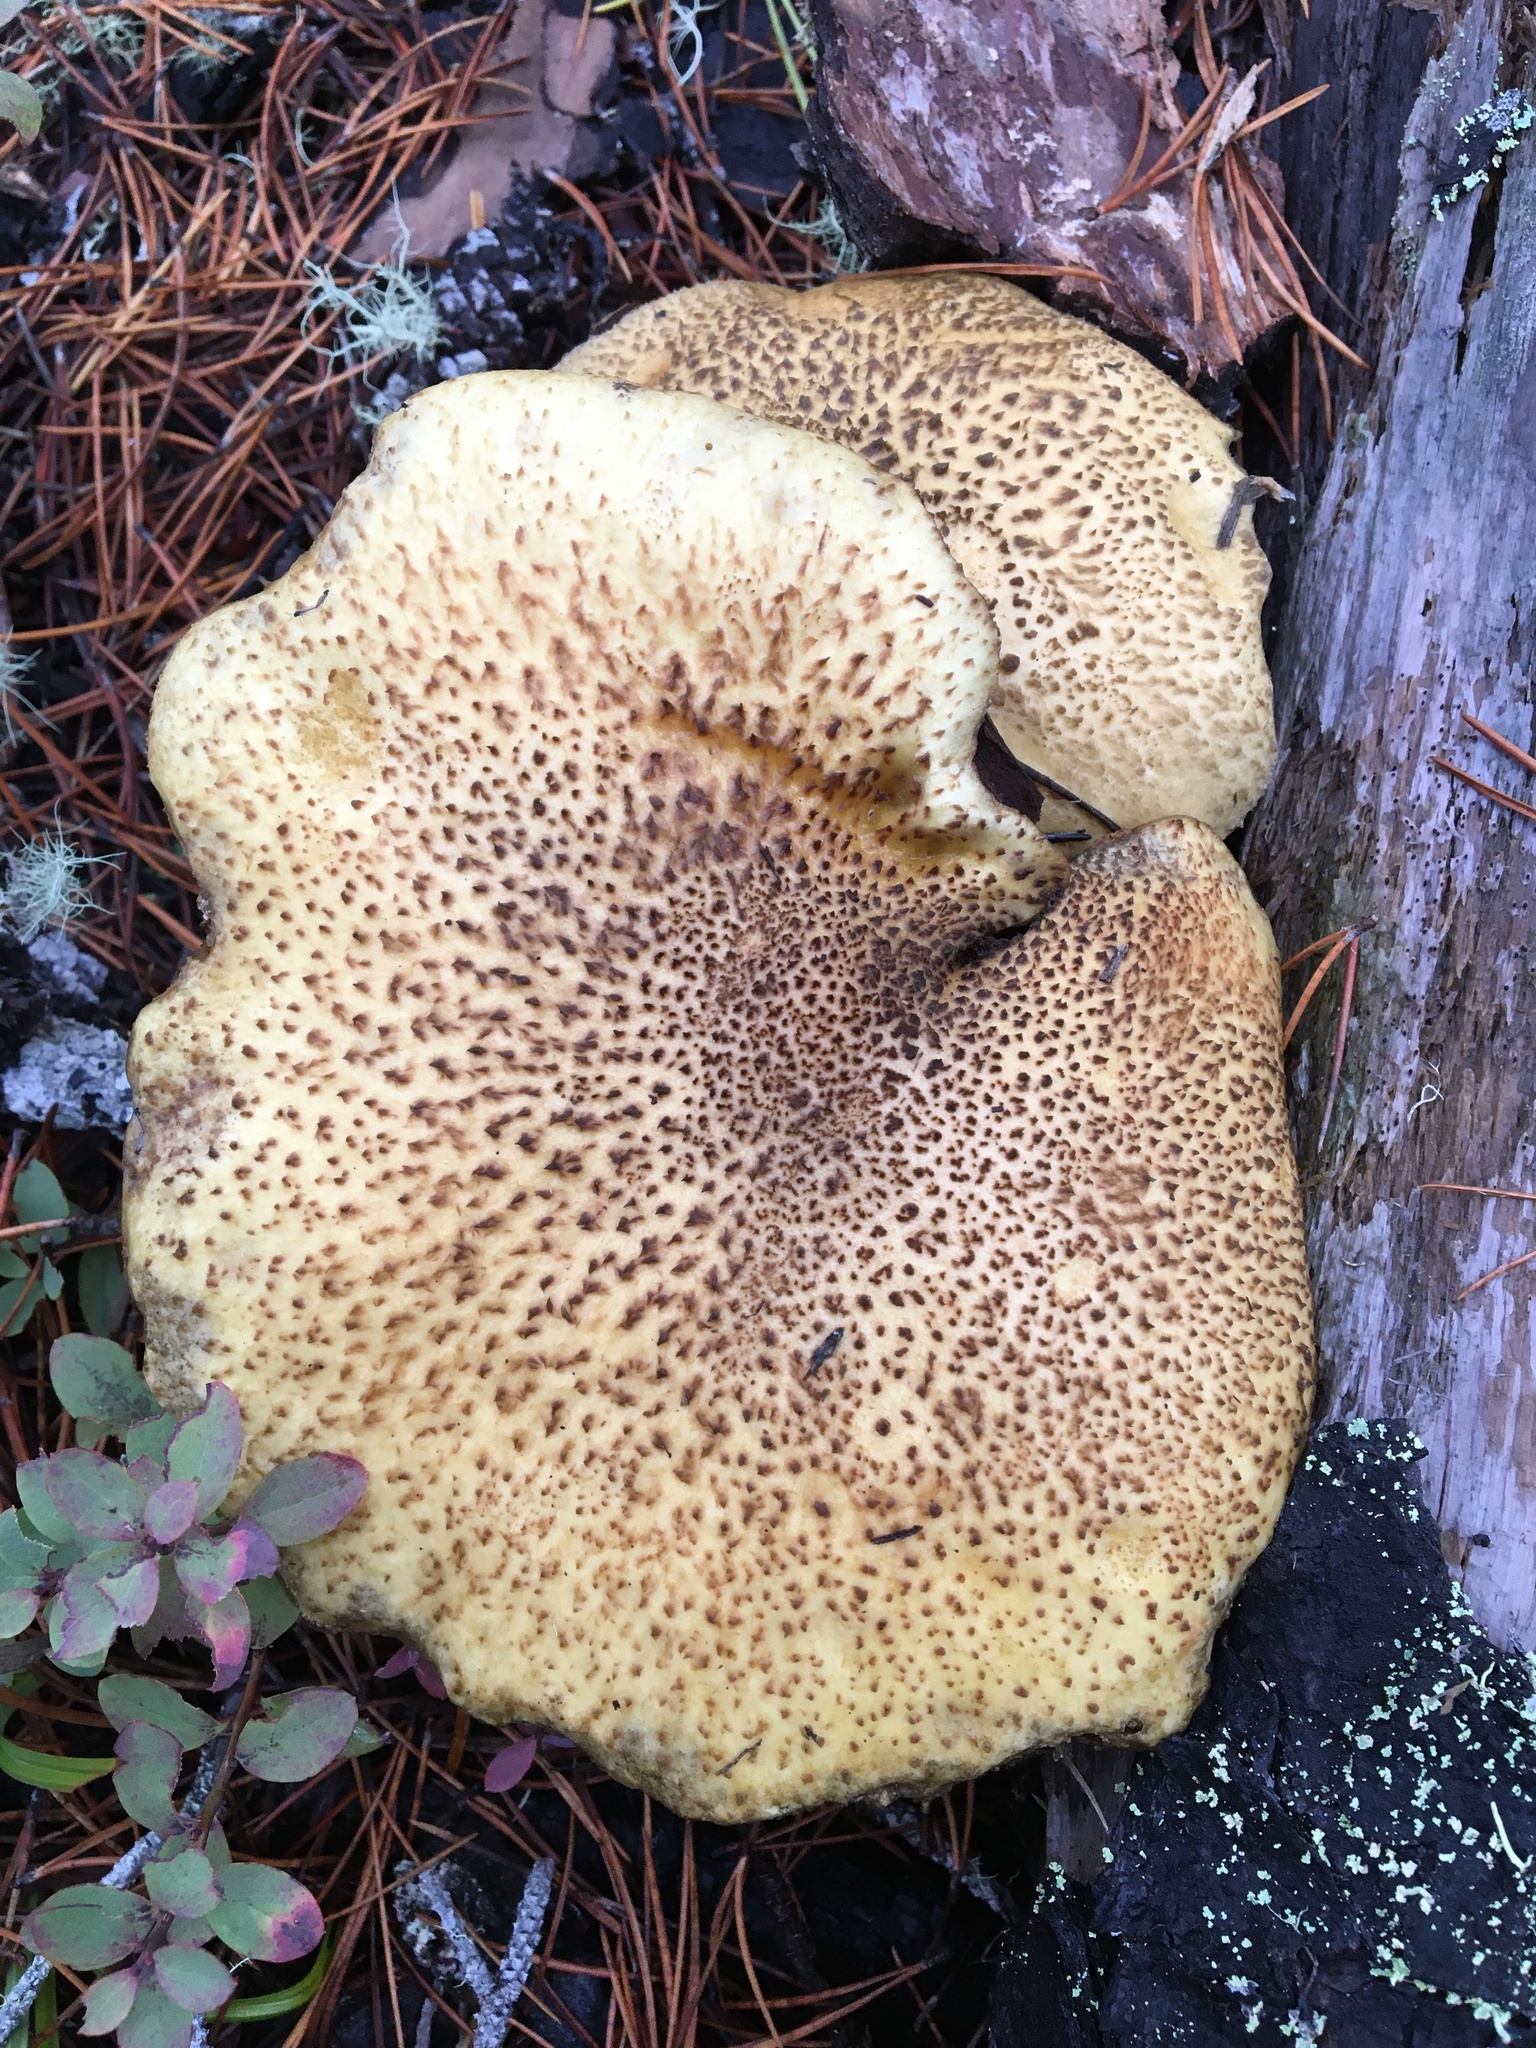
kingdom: Fungi
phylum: Basidiomycota
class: Agaricomycetes
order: Boletales
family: Suillaceae
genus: Suillus
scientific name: Suillus tomentosus
